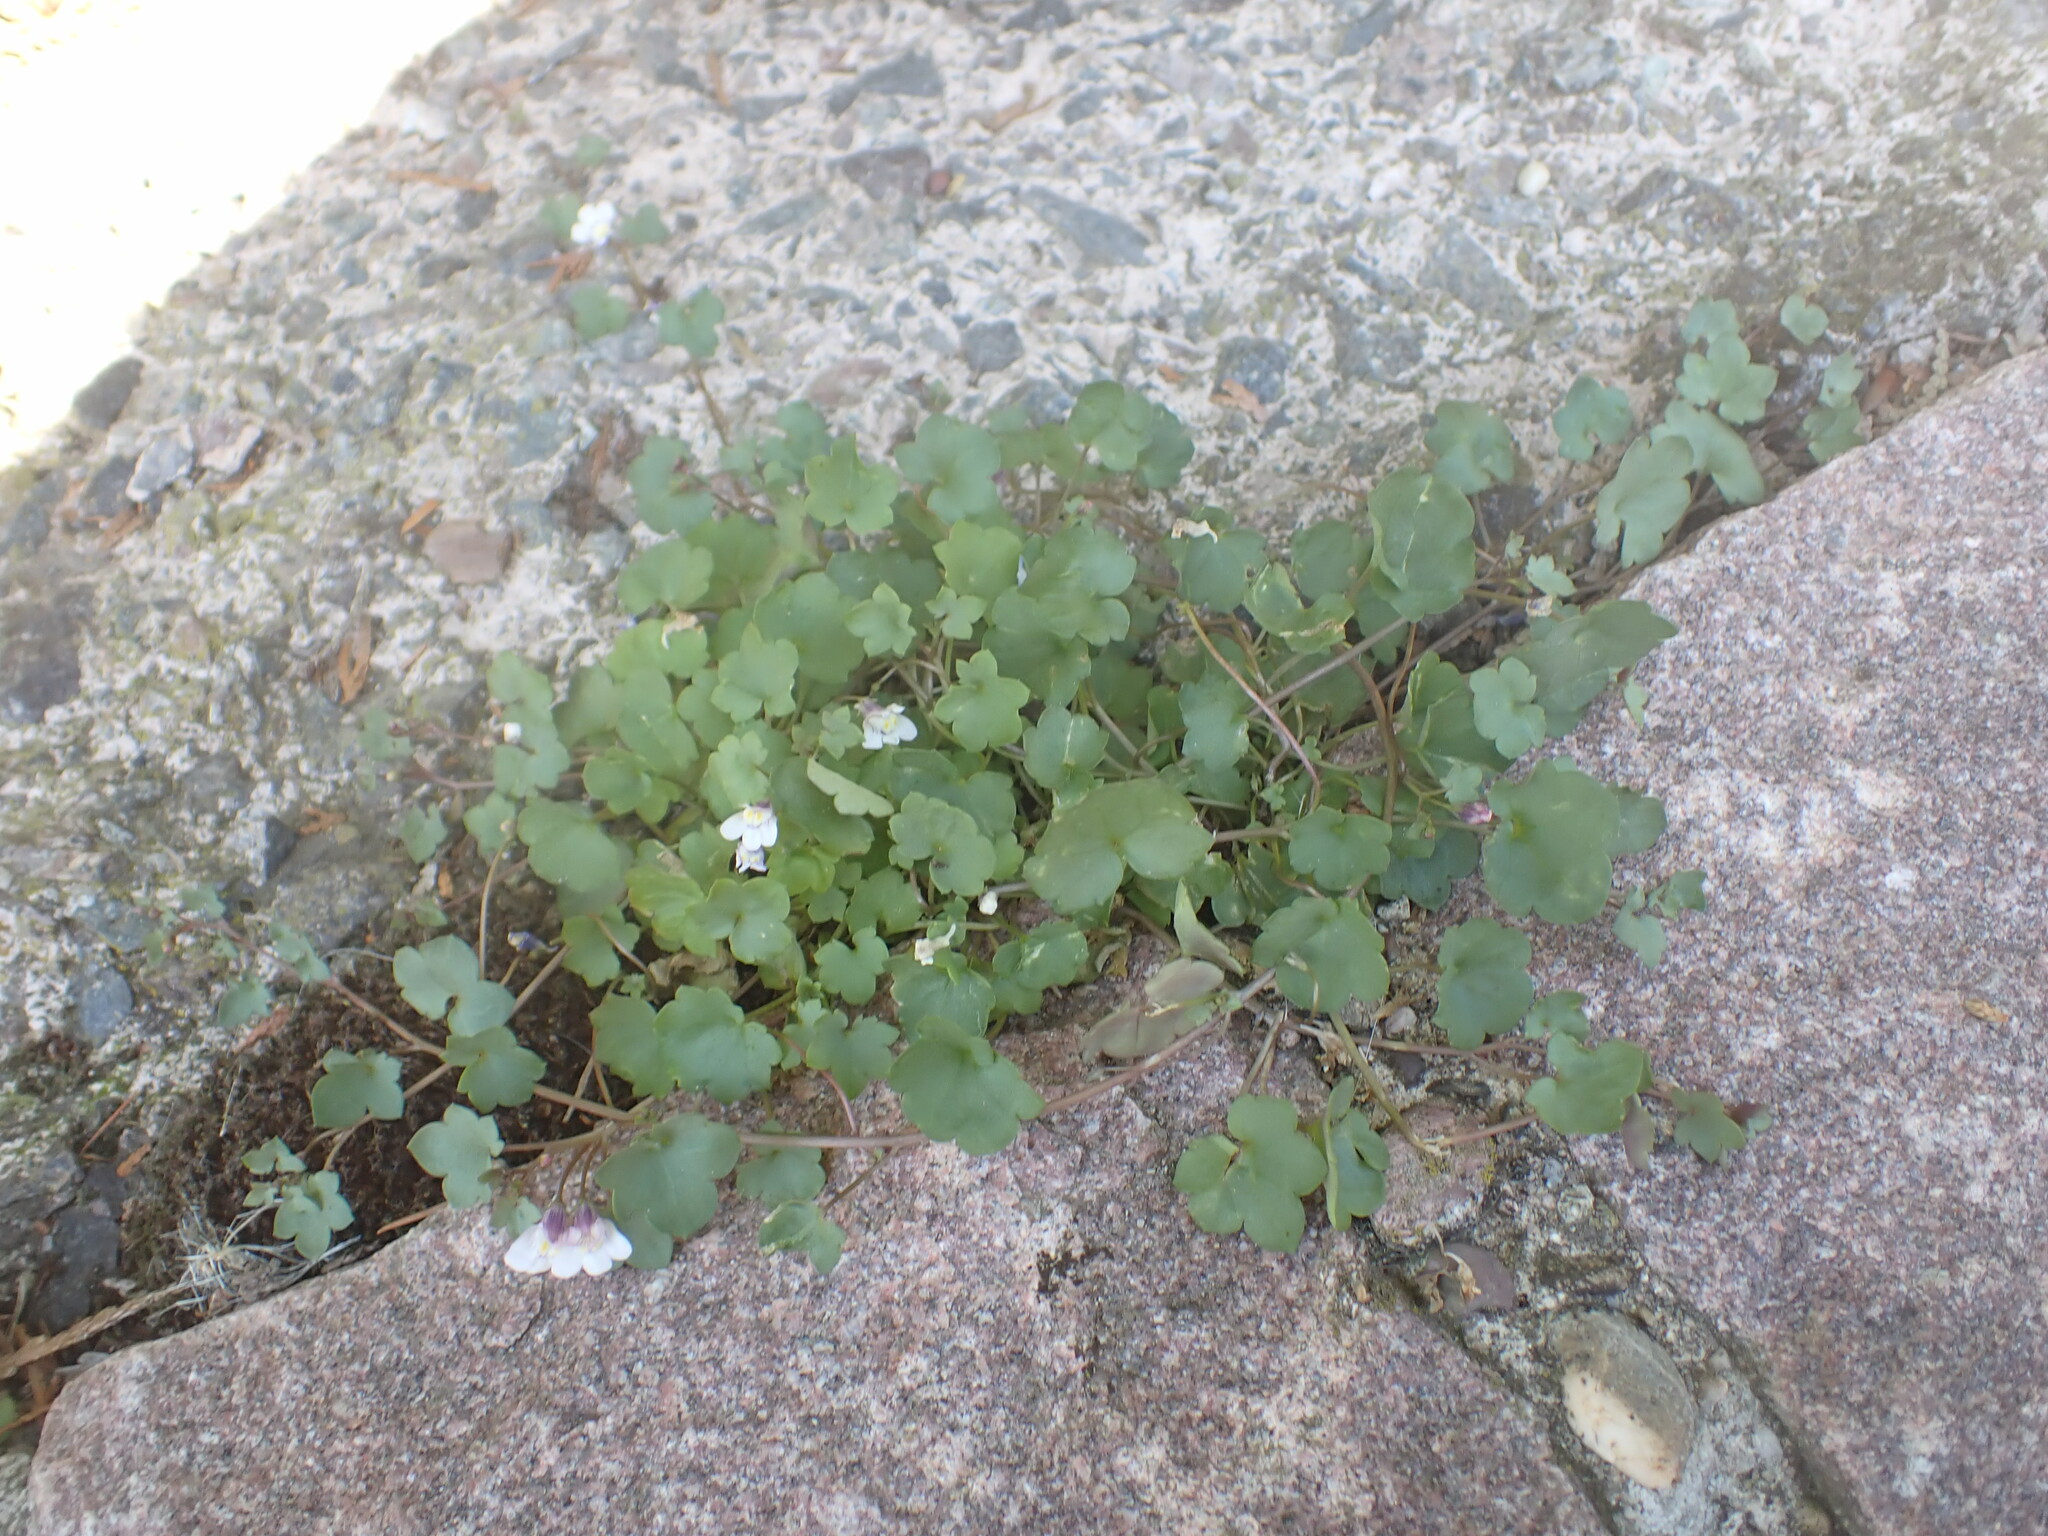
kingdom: Plantae
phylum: Tracheophyta
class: Magnoliopsida
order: Lamiales
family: Plantaginaceae
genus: Cymbalaria
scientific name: Cymbalaria muralis
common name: Ivy-leaved toadflax
